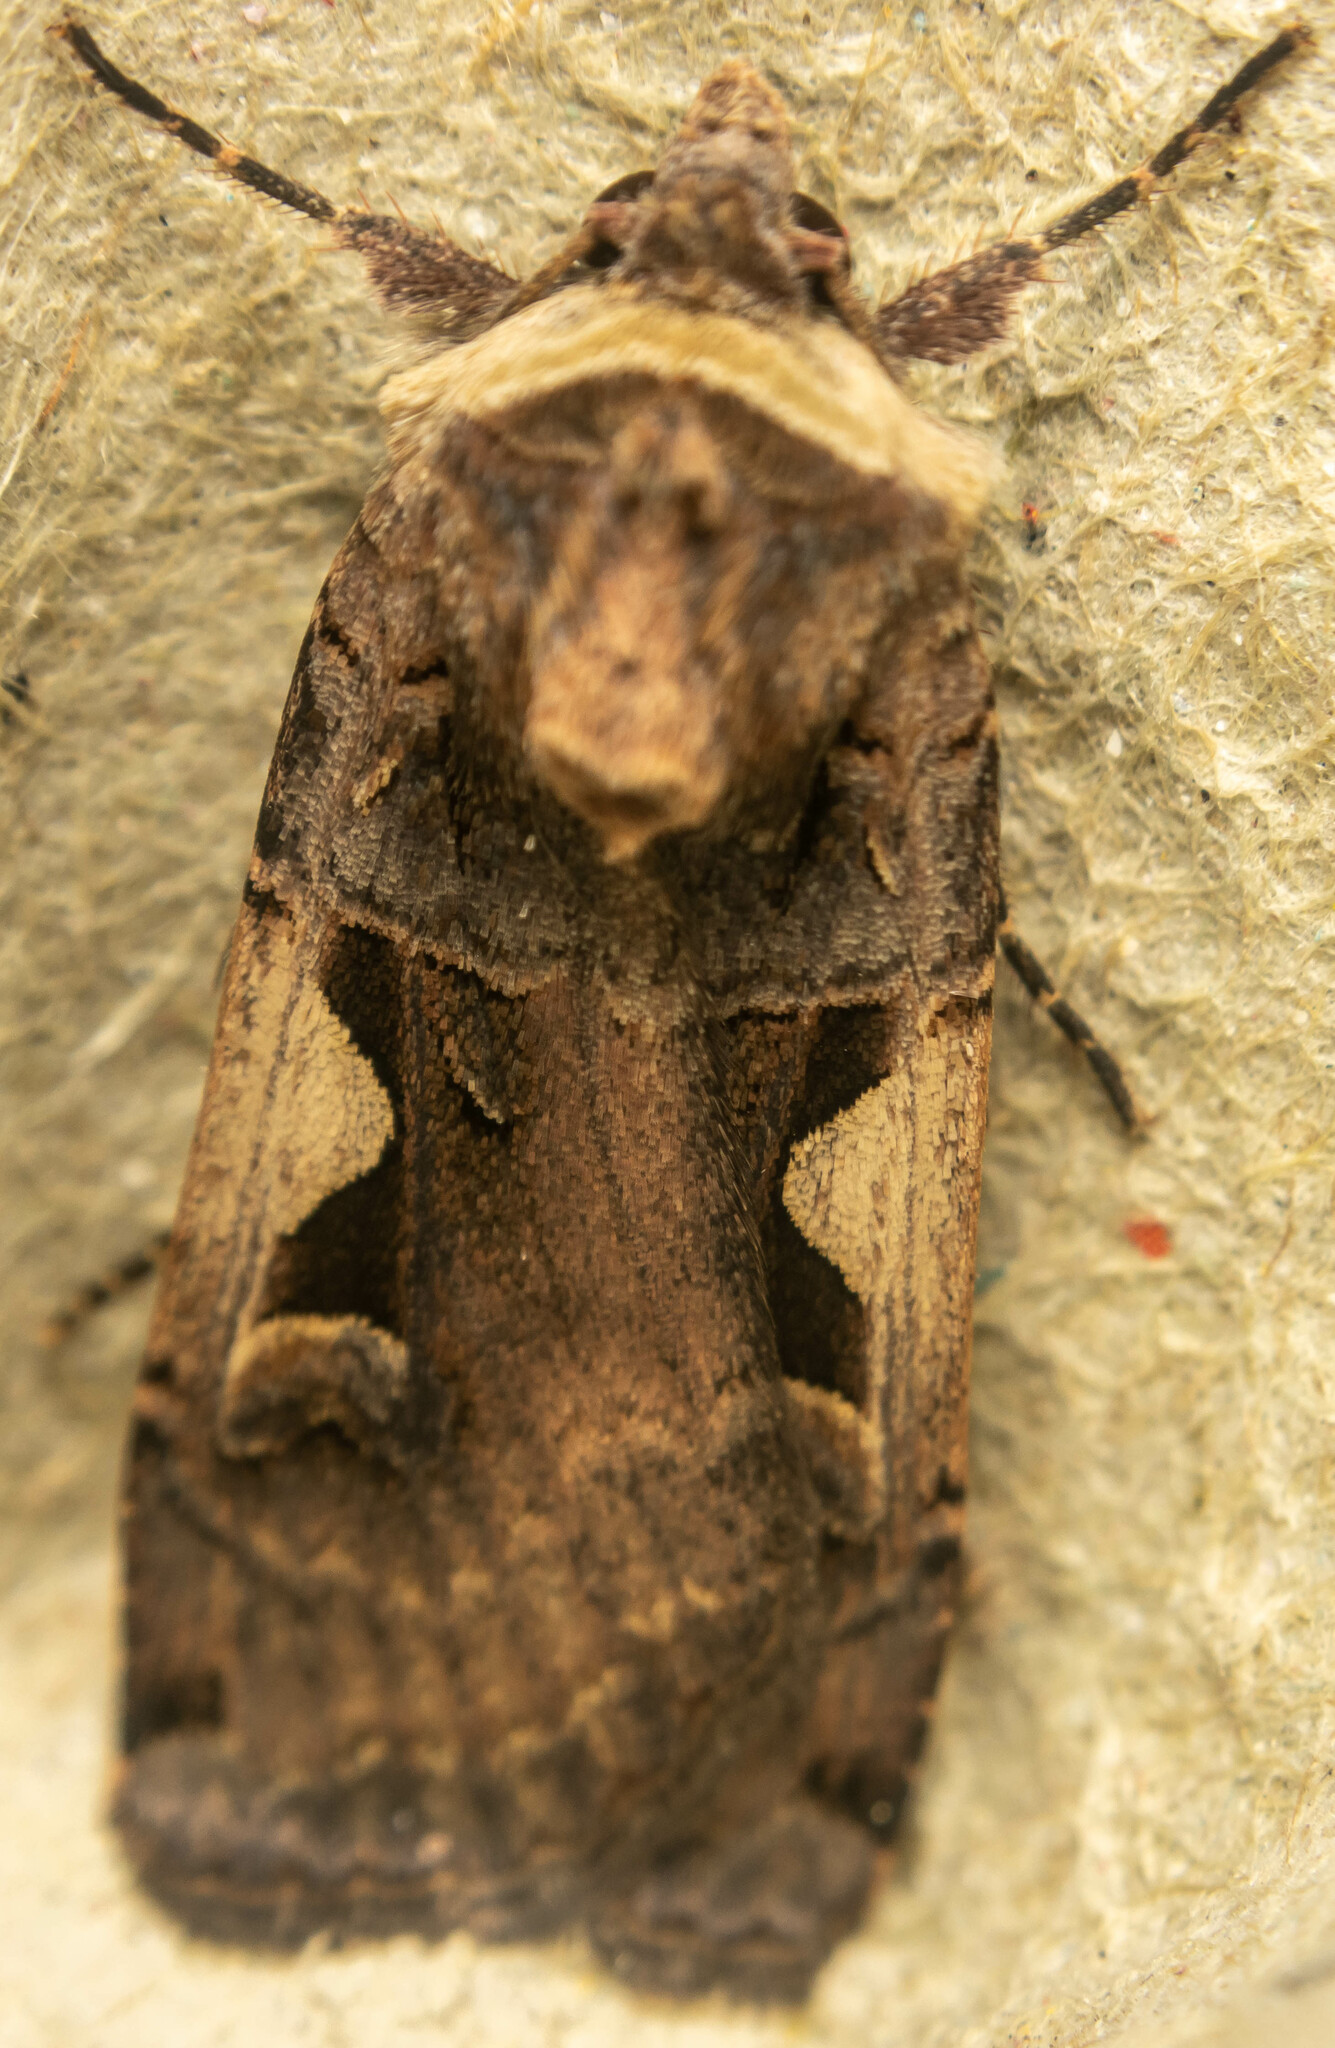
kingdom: Animalia
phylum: Arthropoda
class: Insecta
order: Lepidoptera
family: Noctuidae
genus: Xestia
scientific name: Xestia c-nigrum
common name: Setaceous hebrew character
